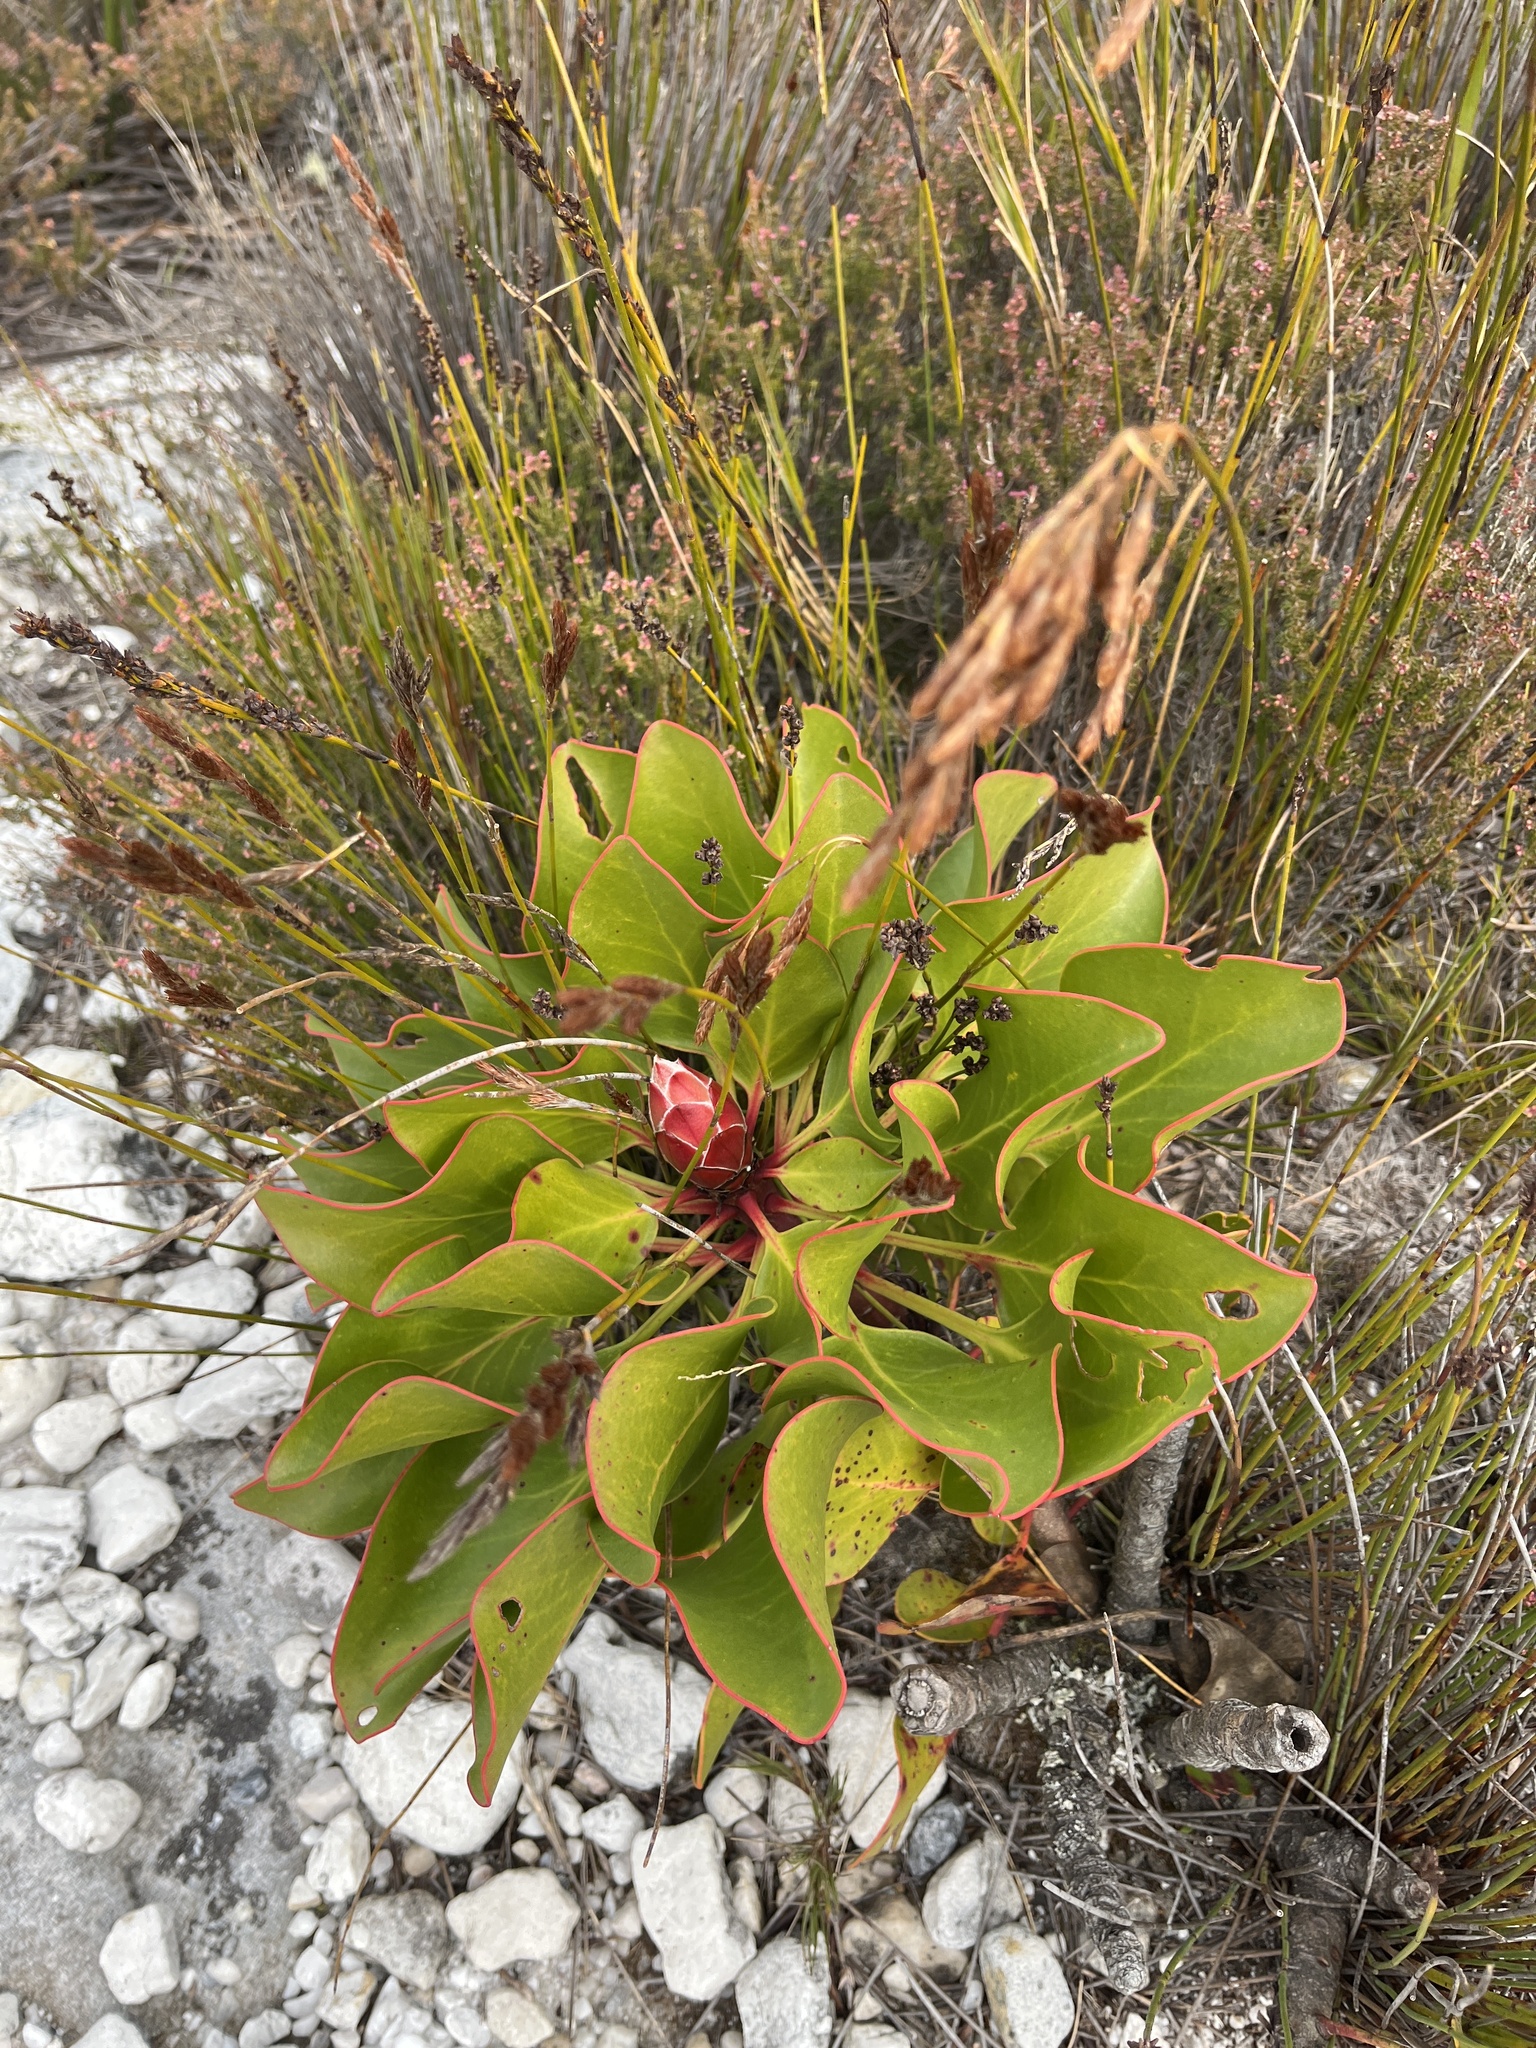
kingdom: Plantae
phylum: Tracheophyta
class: Magnoliopsida
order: Proteales
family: Proteaceae
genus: Protea
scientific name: Protea cynaroides
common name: King protea
